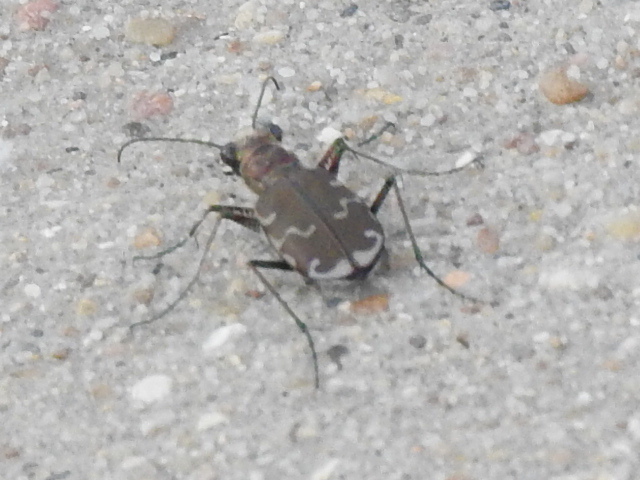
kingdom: Animalia
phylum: Arthropoda
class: Insecta
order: Coleoptera
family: Carabidae
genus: Cicindela
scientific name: Cicindela repanda
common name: Bronzed tiger beetle
